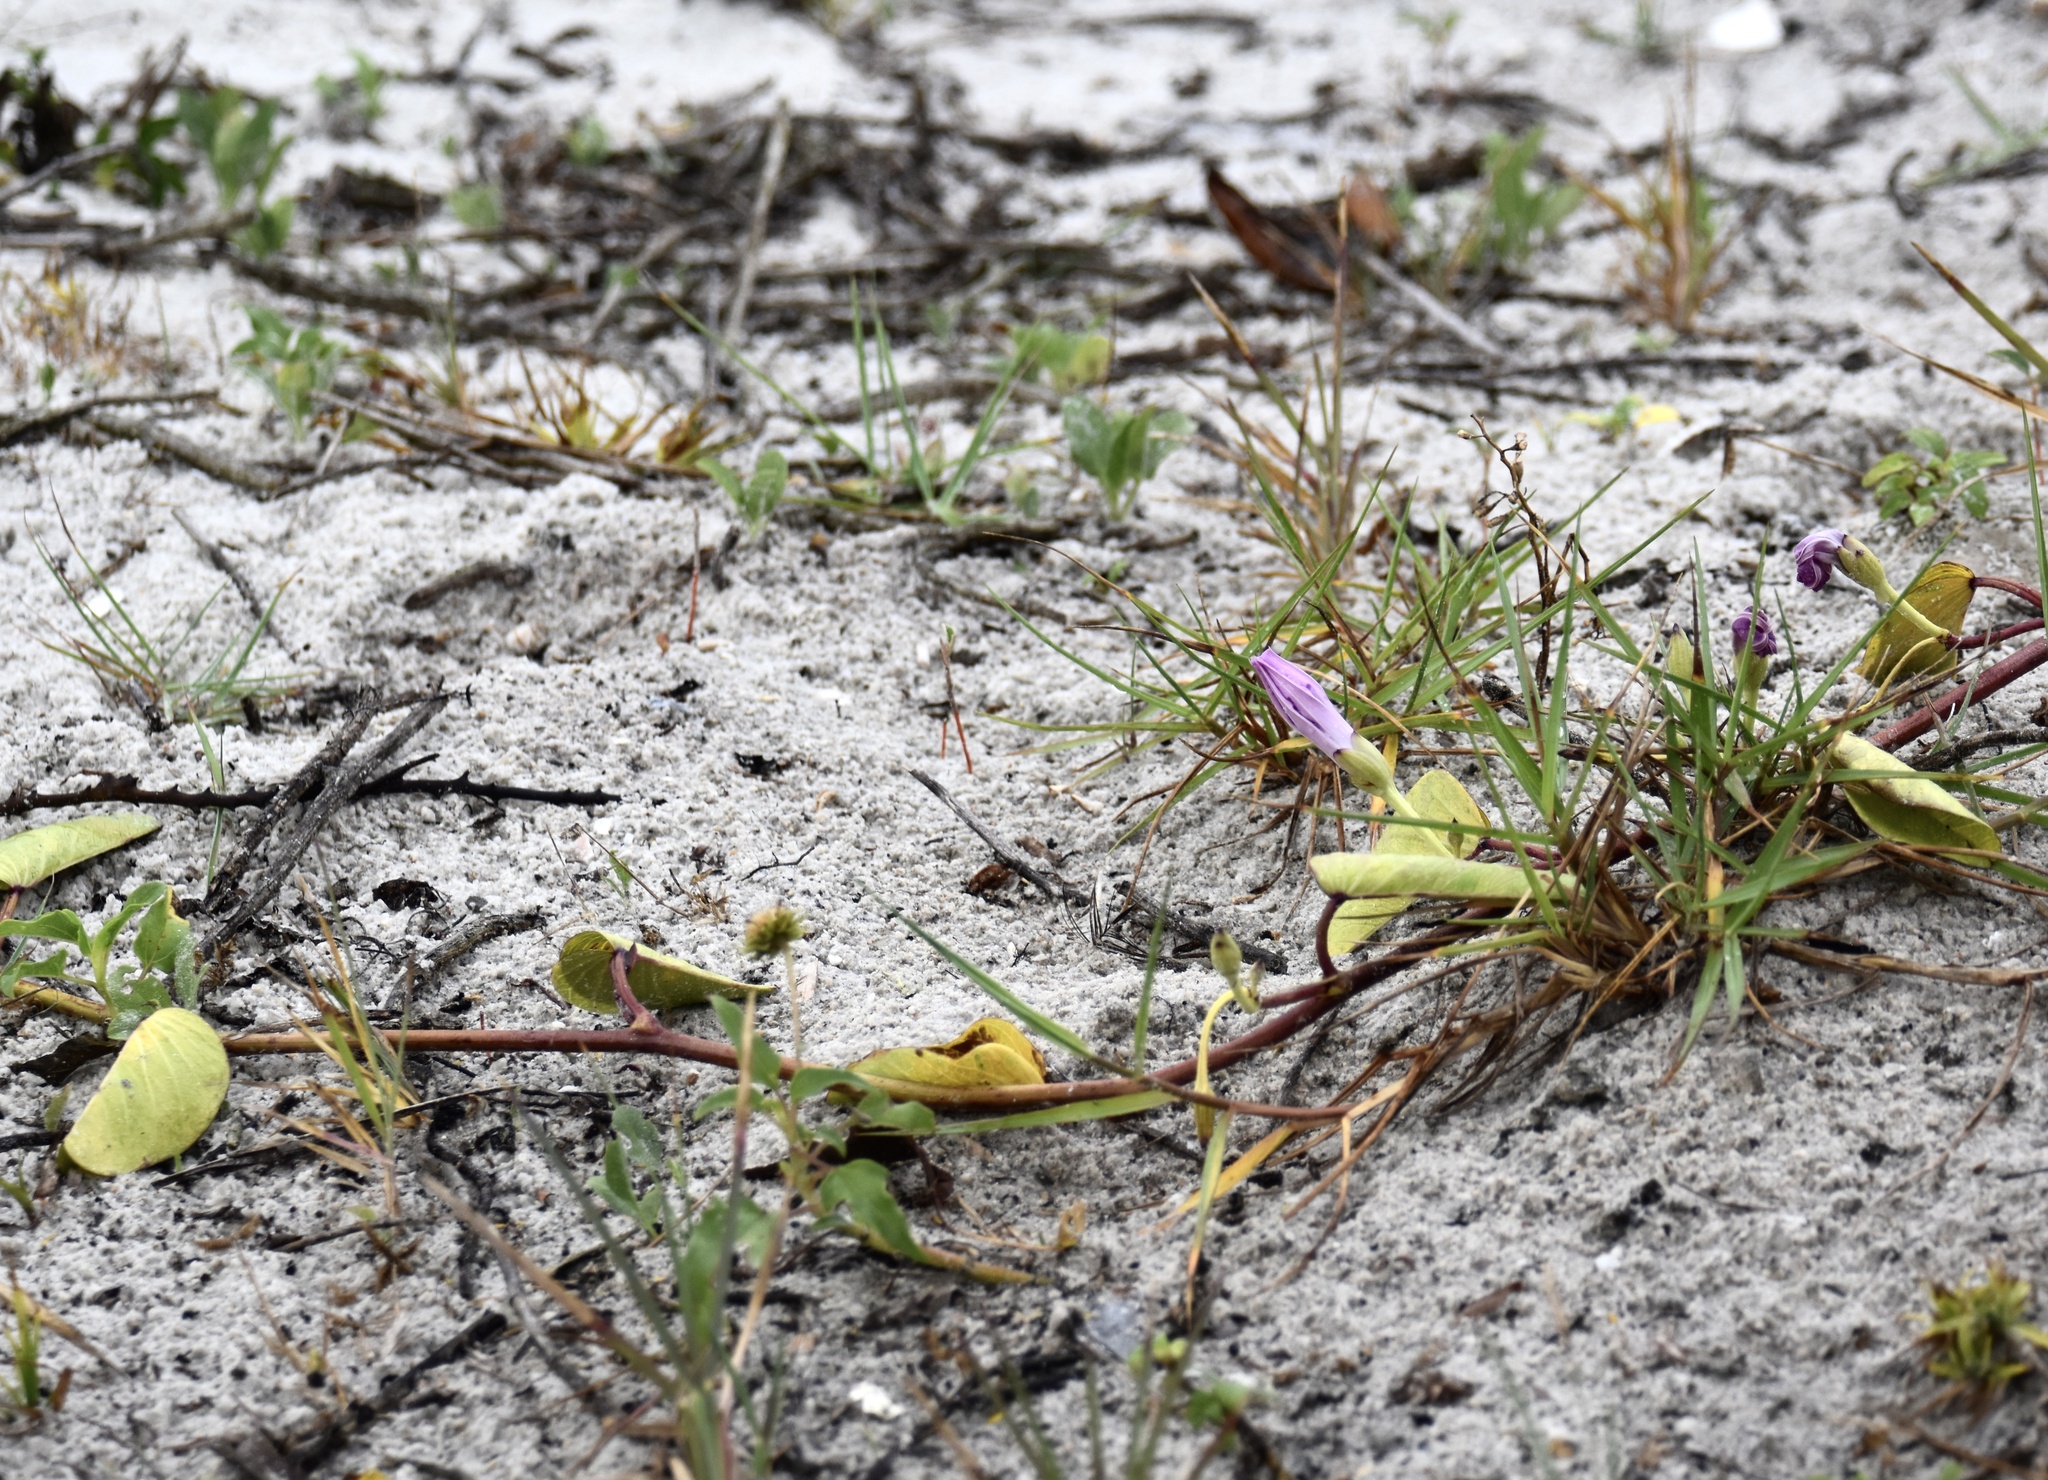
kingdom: Plantae
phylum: Tracheophyta
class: Magnoliopsida
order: Solanales
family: Convolvulaceae
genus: Ipomoea
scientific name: Ipomoea pes-caprae
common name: Beach morning glory
